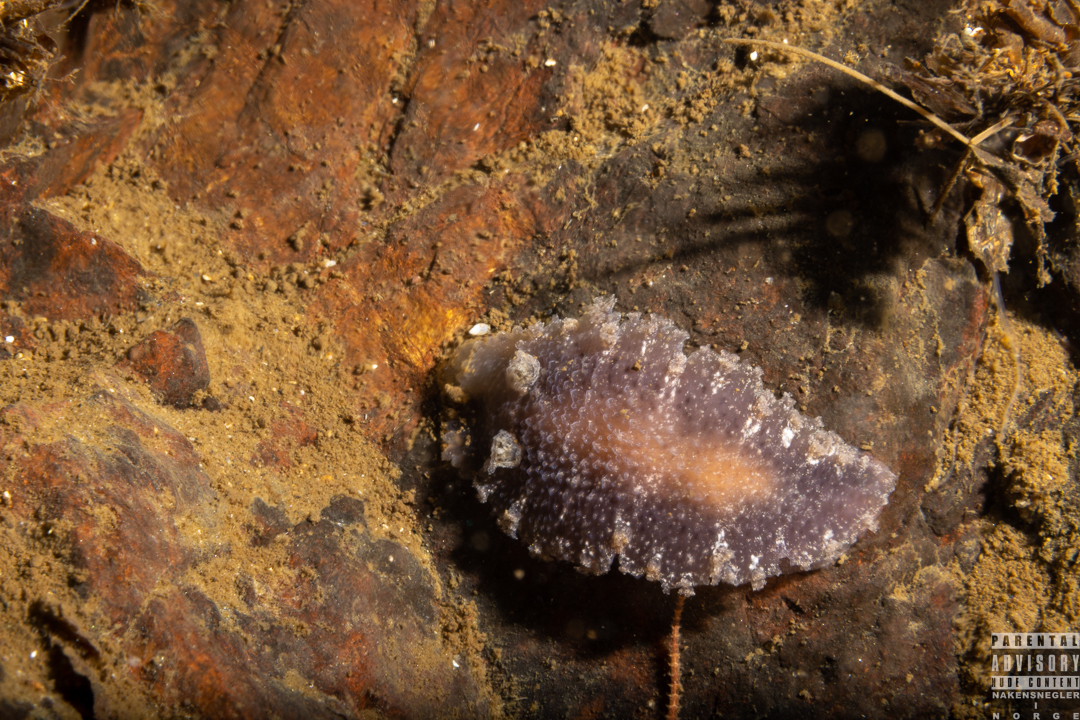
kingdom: Animalia
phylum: Mollusca
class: Gastropoda
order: Nudibranchia
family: Tritoniidae
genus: Tritonia
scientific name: Tritonia hombergii
